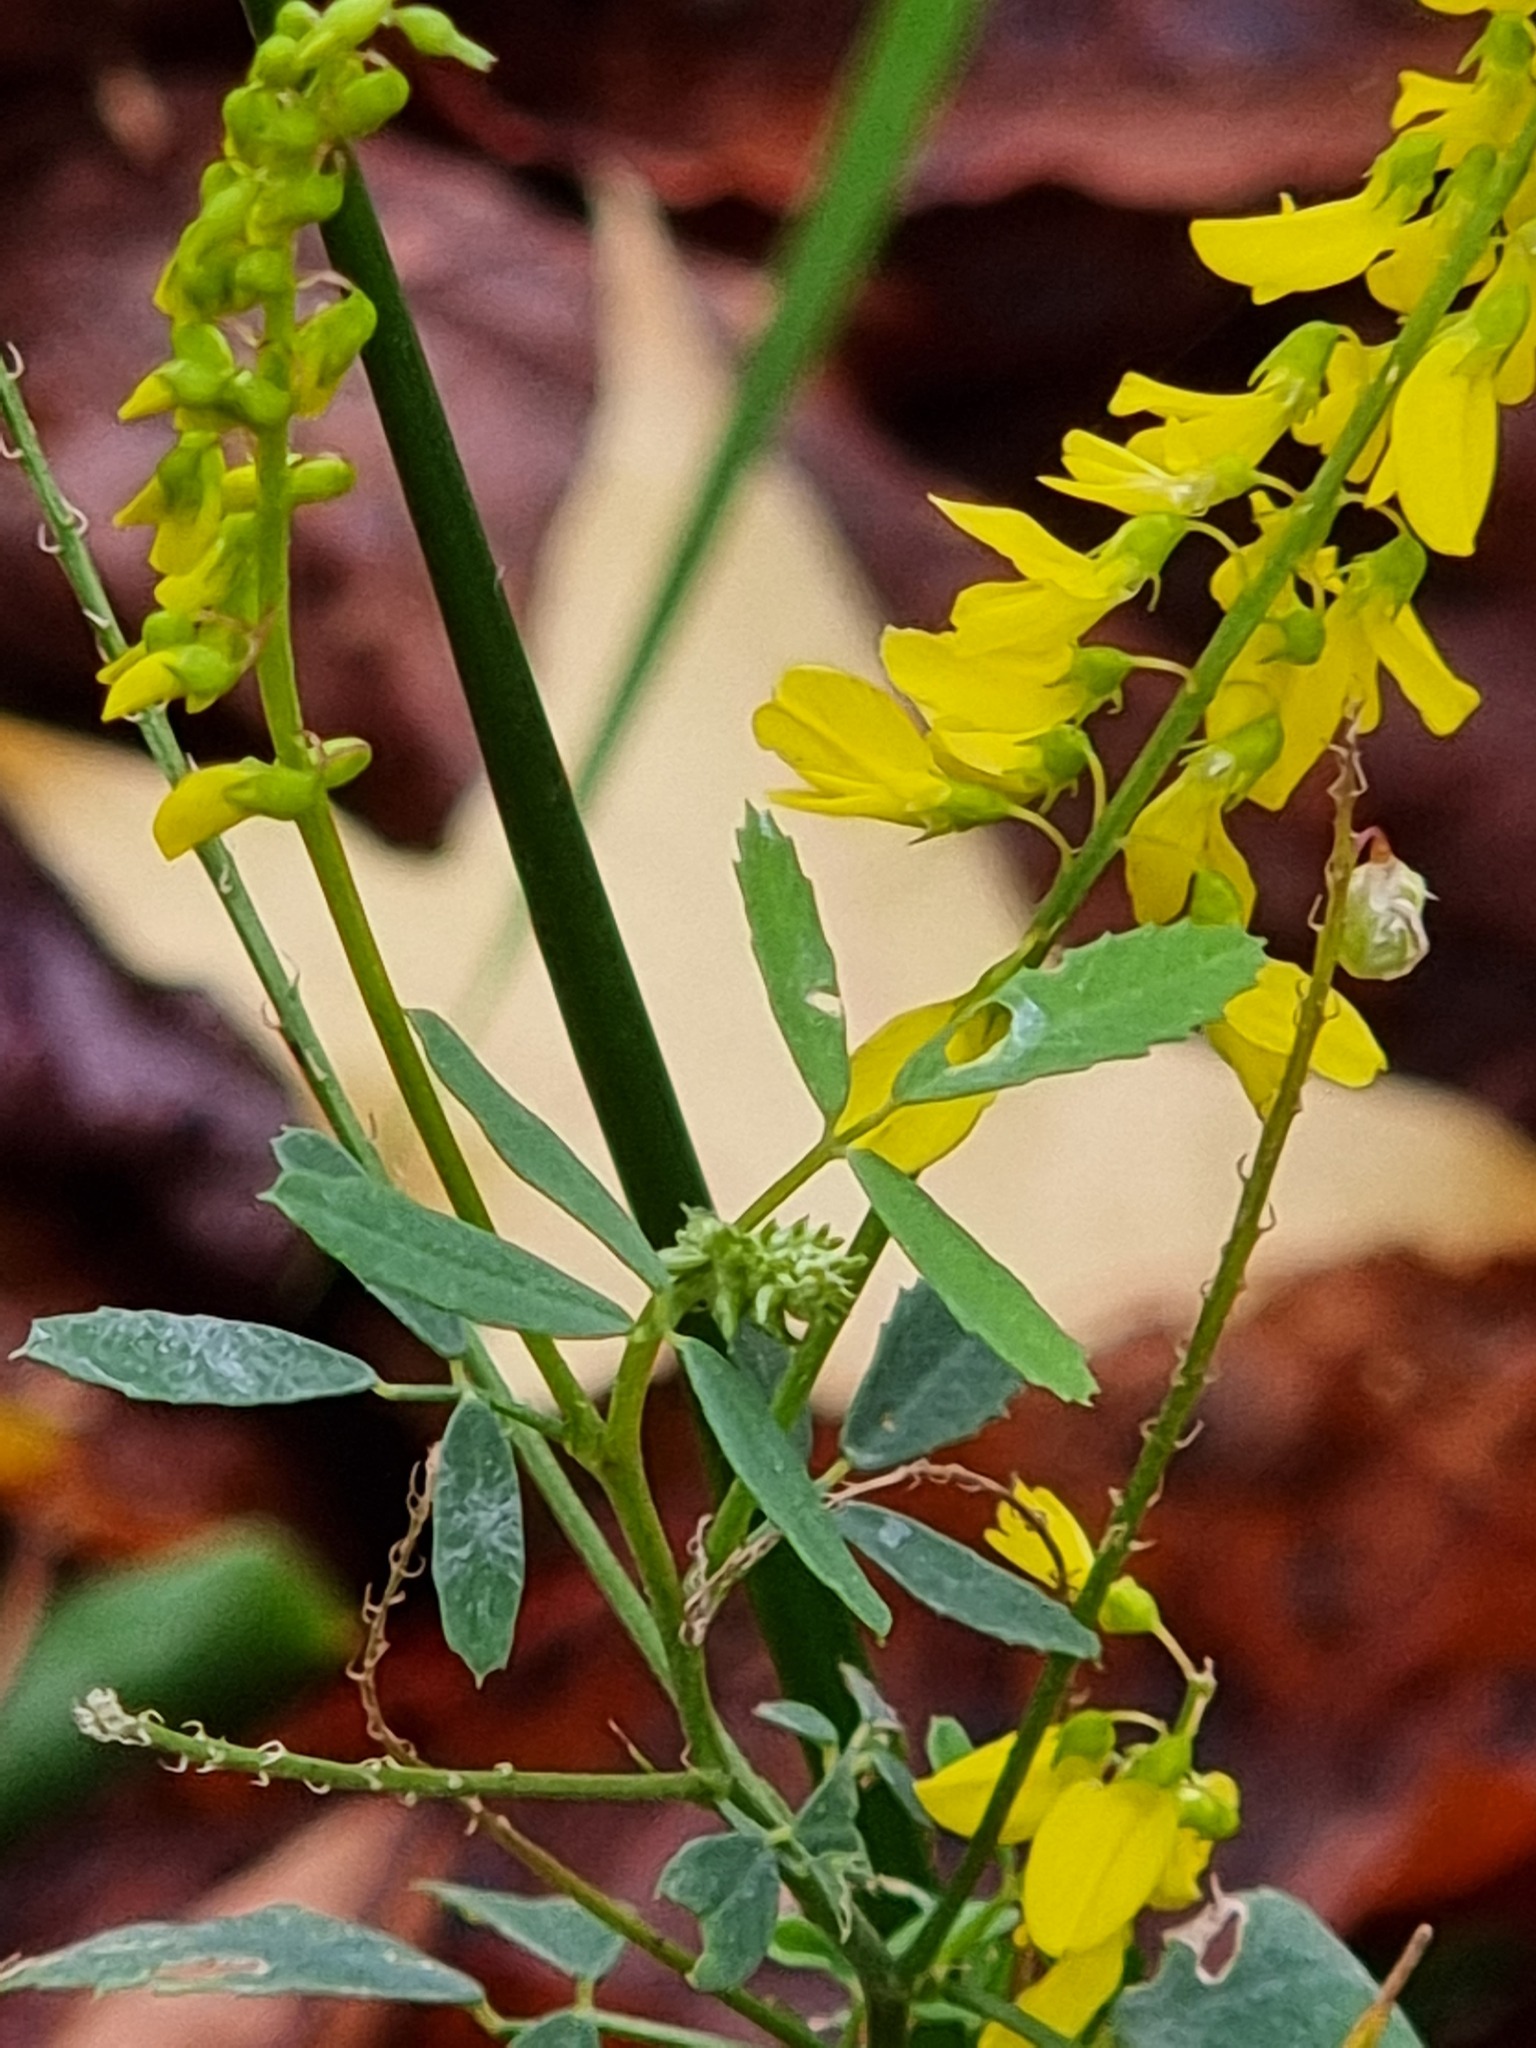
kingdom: Plantae
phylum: Tracheophyta
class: Magnoliopsida
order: Fabales
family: Fabaceae
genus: Melilotus
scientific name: Melilotus officinalis
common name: Sweetclover
